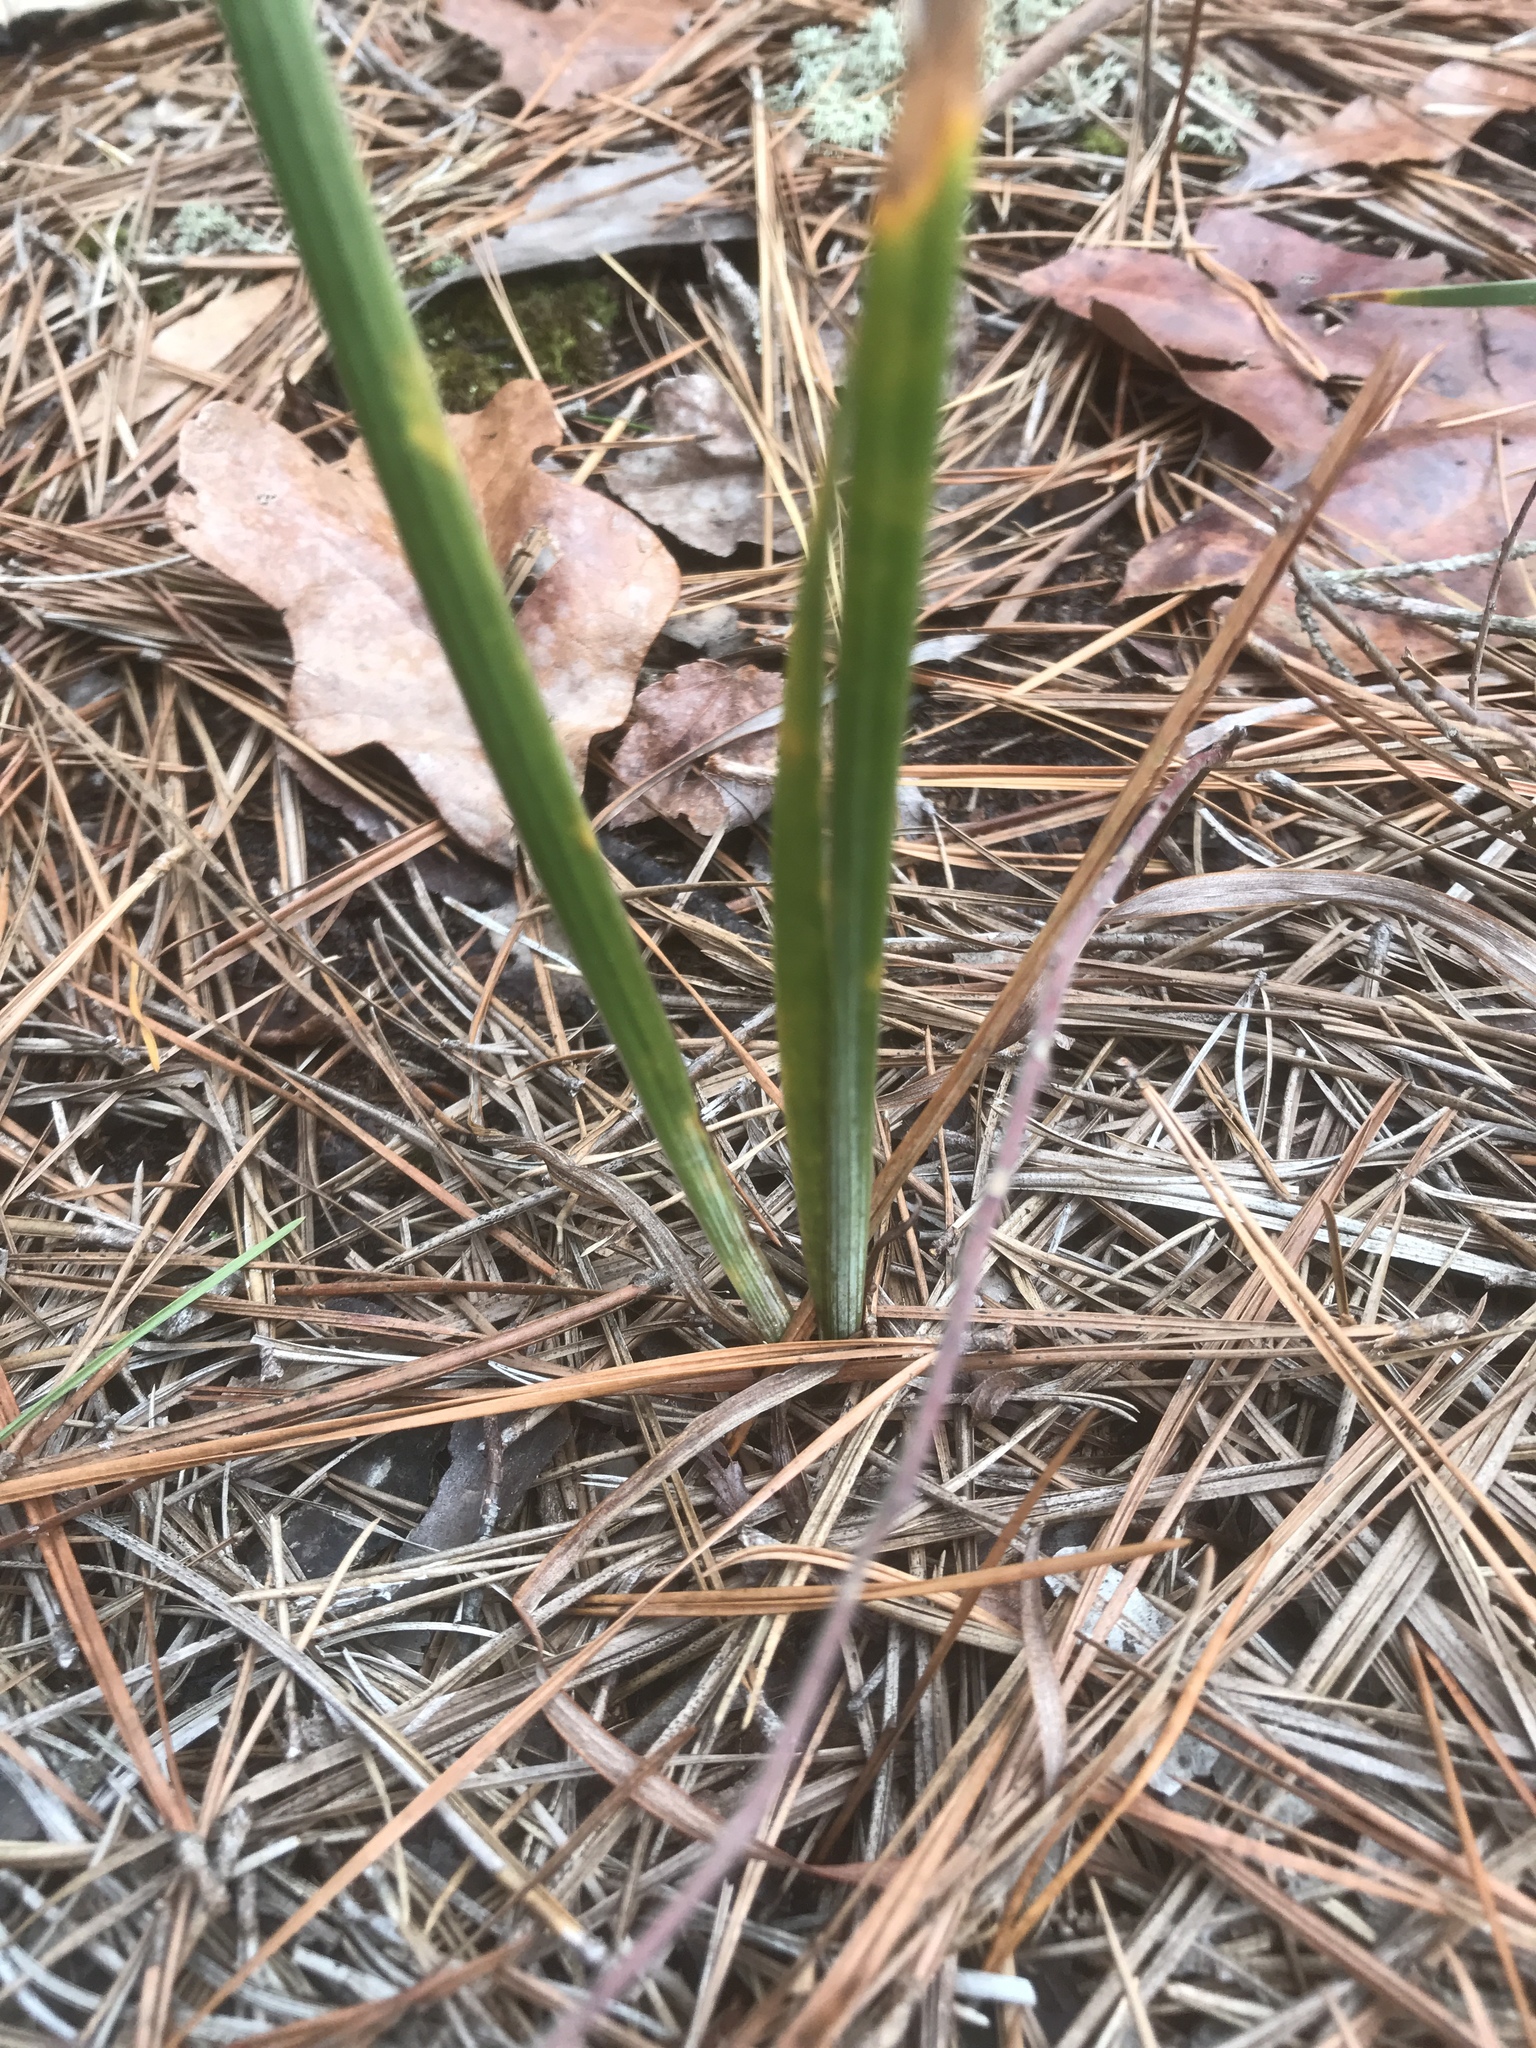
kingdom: Plantae
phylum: Tracheophyta
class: Liliopsida
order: Asparagales
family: Iridaceae
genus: Iris
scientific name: Iris verna
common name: Dwarf iris
